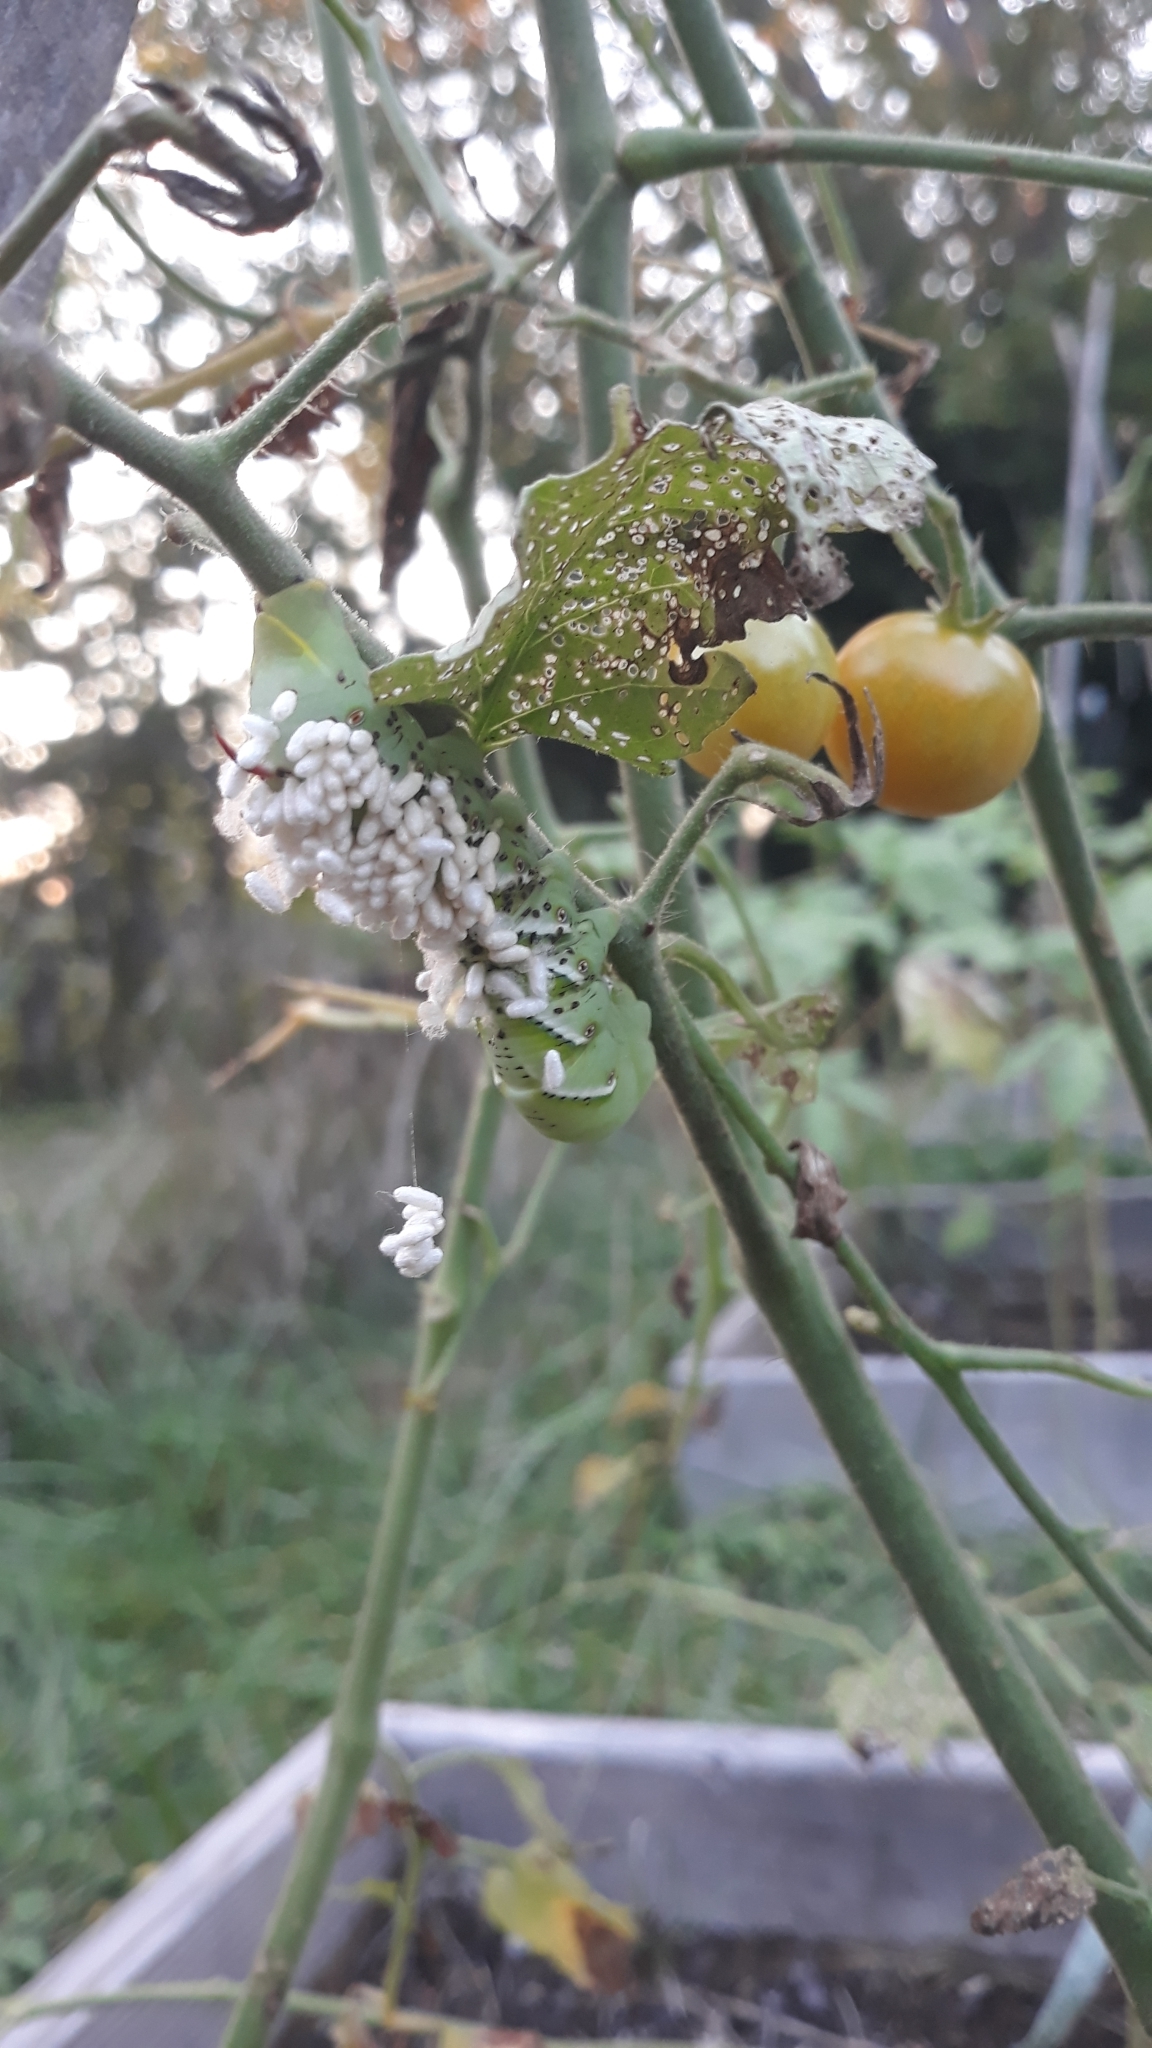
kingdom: Animalia
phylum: Arthropoda
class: Insecta
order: Hymenoptera
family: Braconidae
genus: Cotesia
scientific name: Cotesia congregata
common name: Hornworm parasitoid wasp
